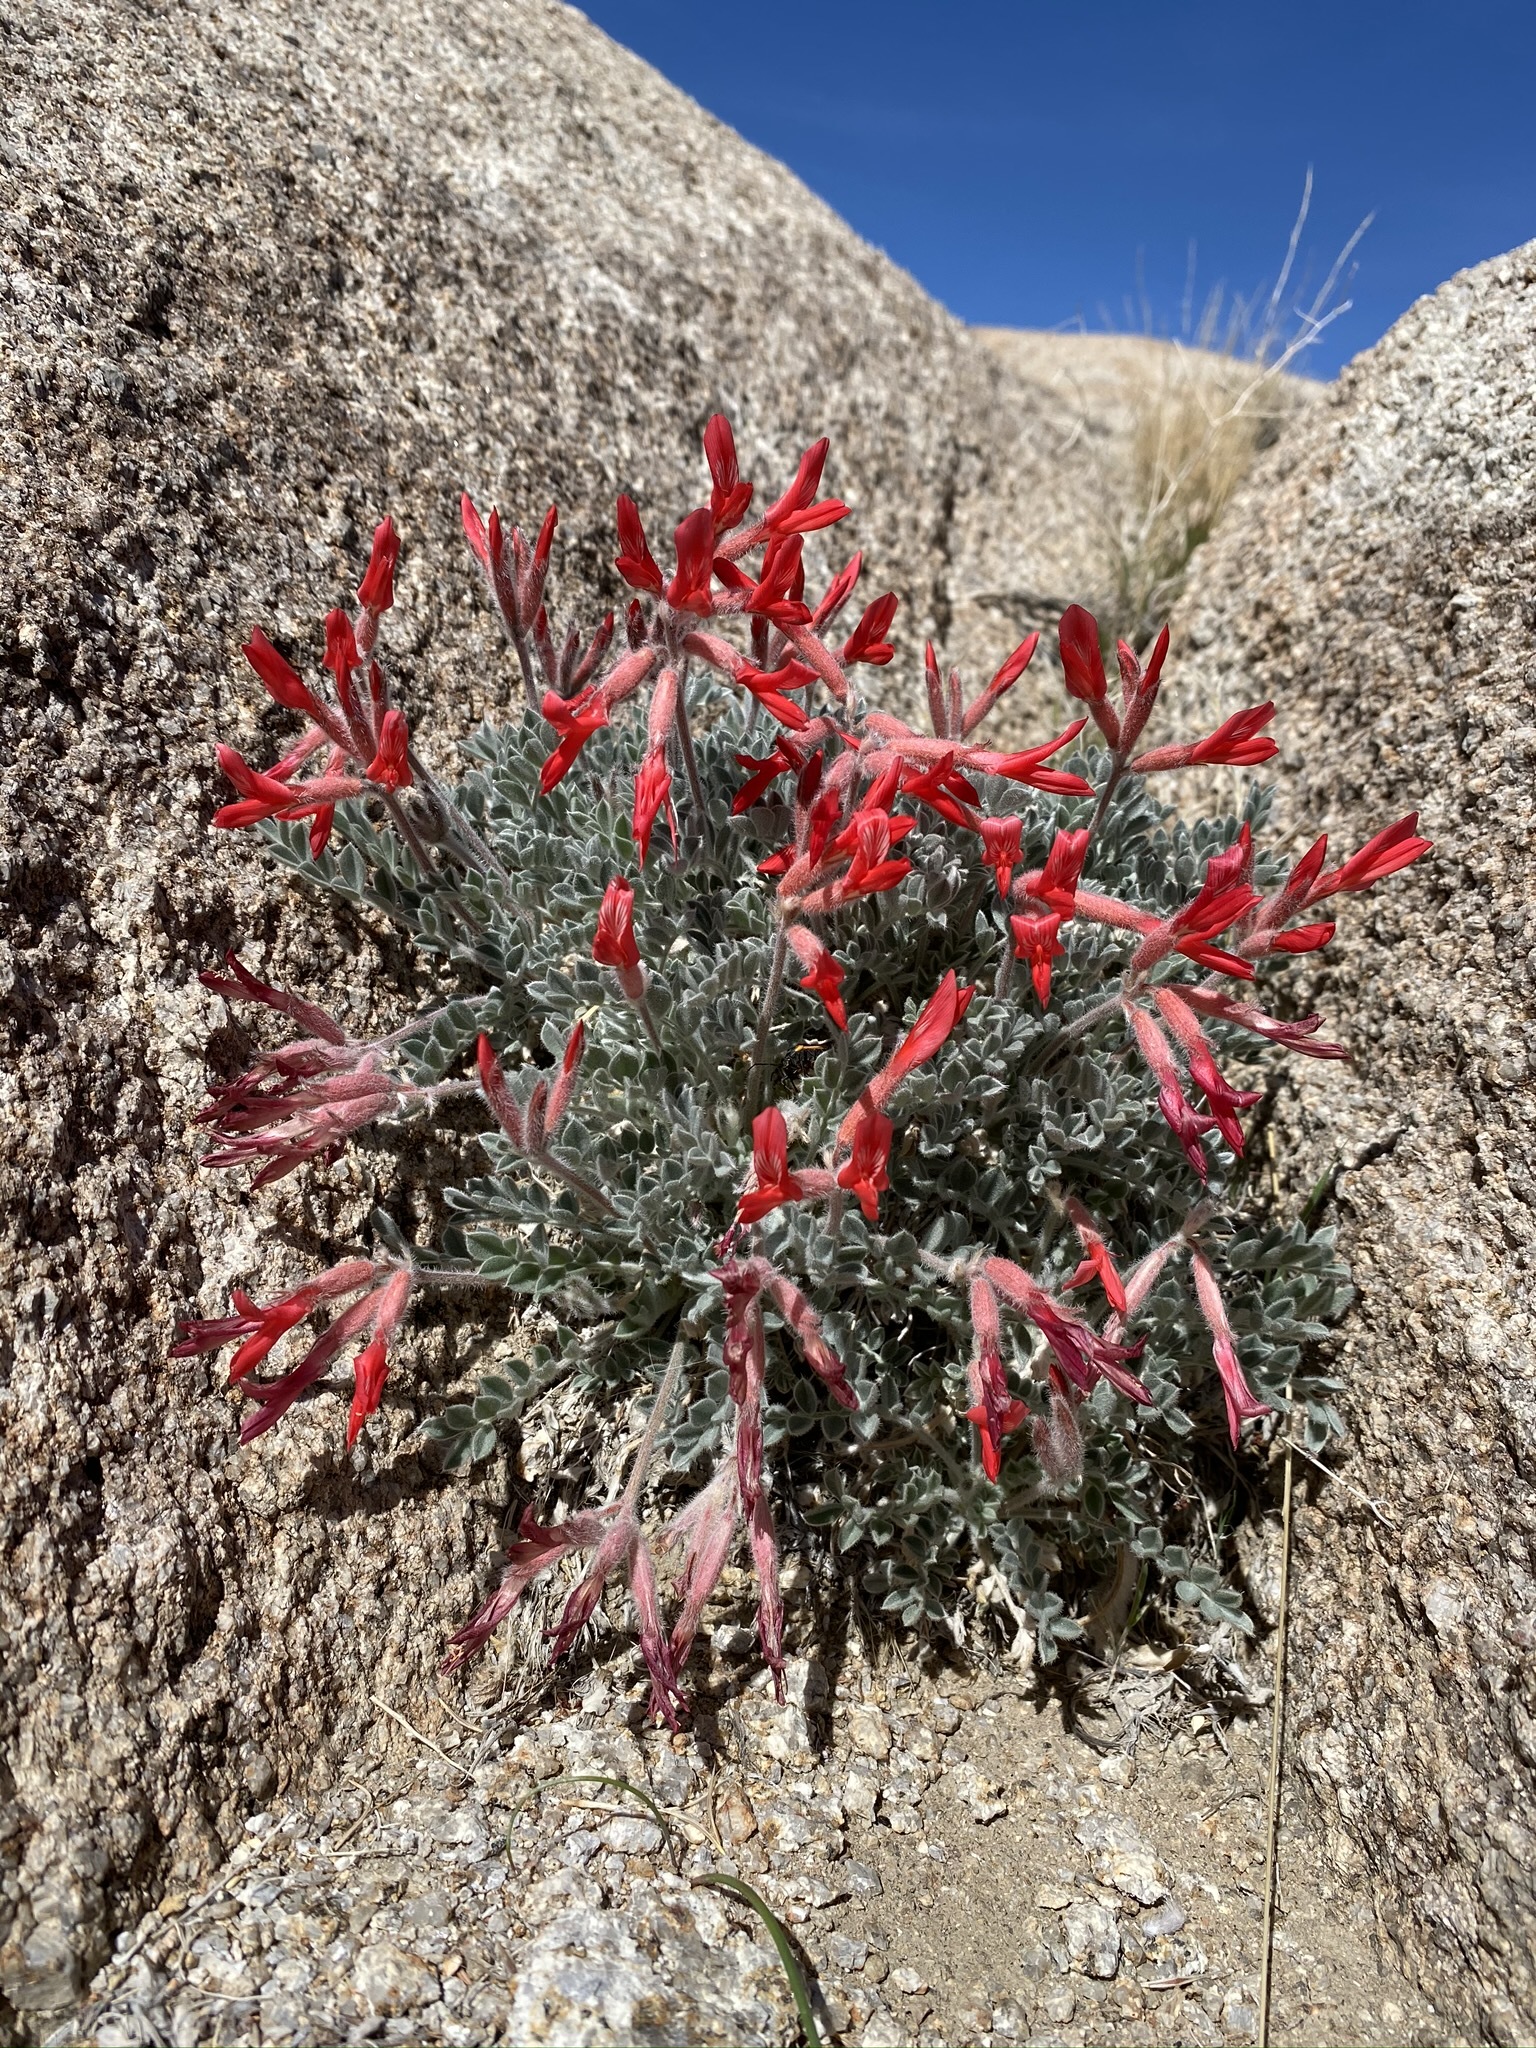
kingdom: Plantae
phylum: Tracheophyta
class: Magnoliopsida
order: Fabales
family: Fabaceae
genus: Astragalus
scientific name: Astragalus coccineus
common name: Scarlet milk-vetch
